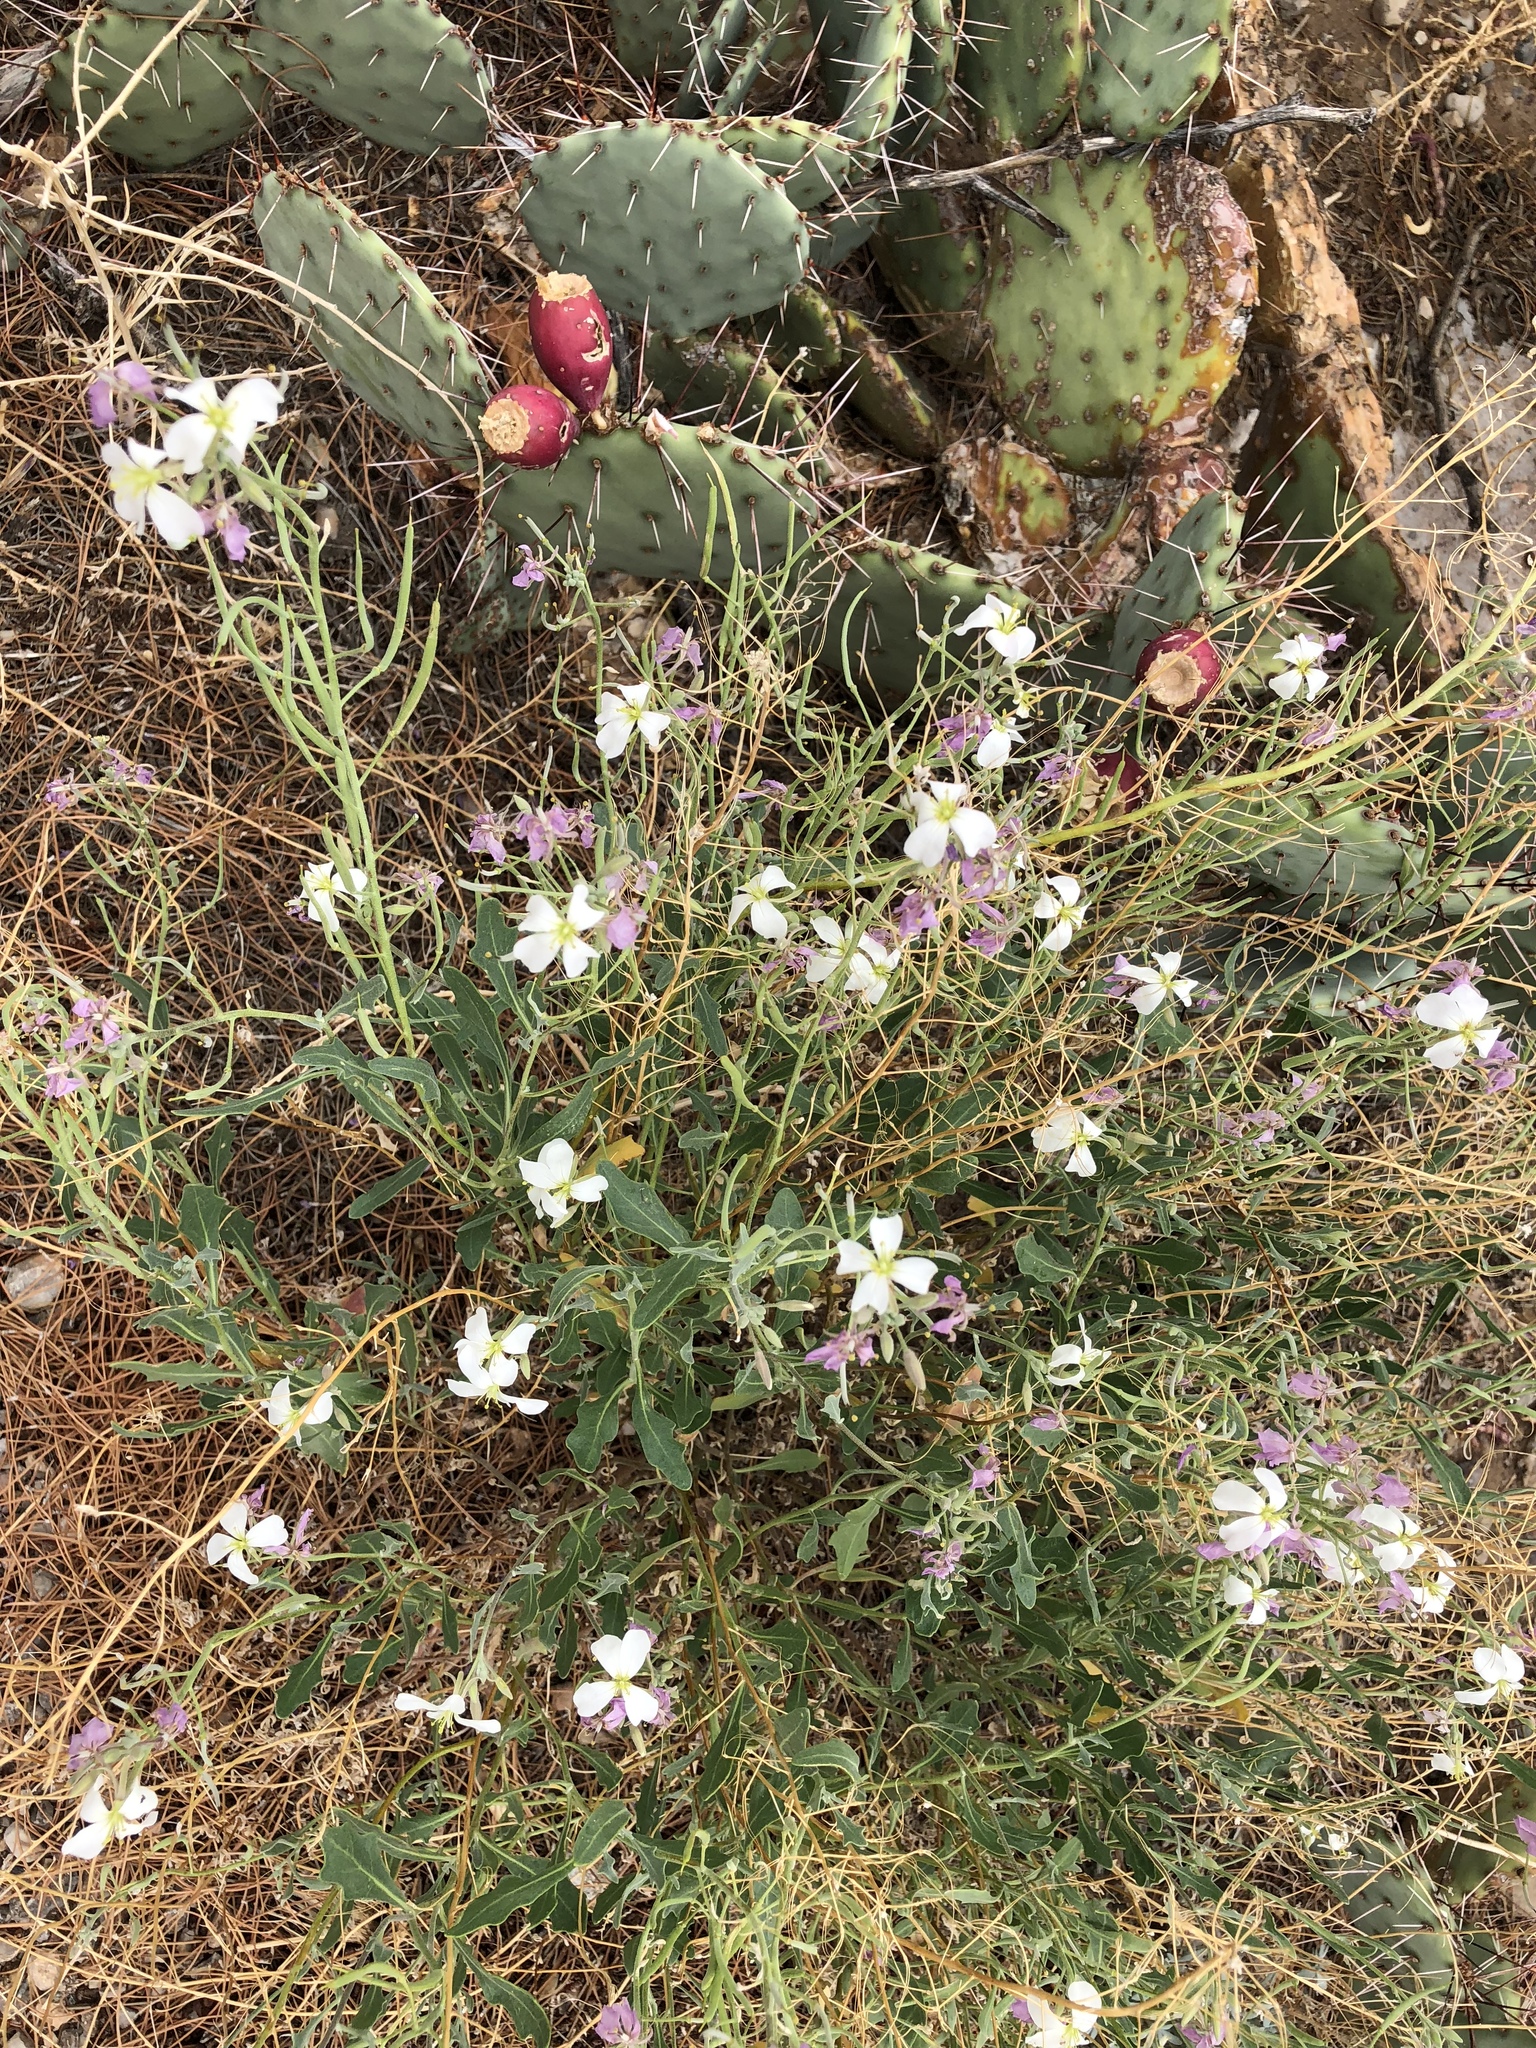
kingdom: Plantae
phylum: Tracheophyta
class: Magnoliopsida
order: Brassicales
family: Brassicaceae
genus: Nerisyrenia
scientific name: Nerisyrenia camporum
